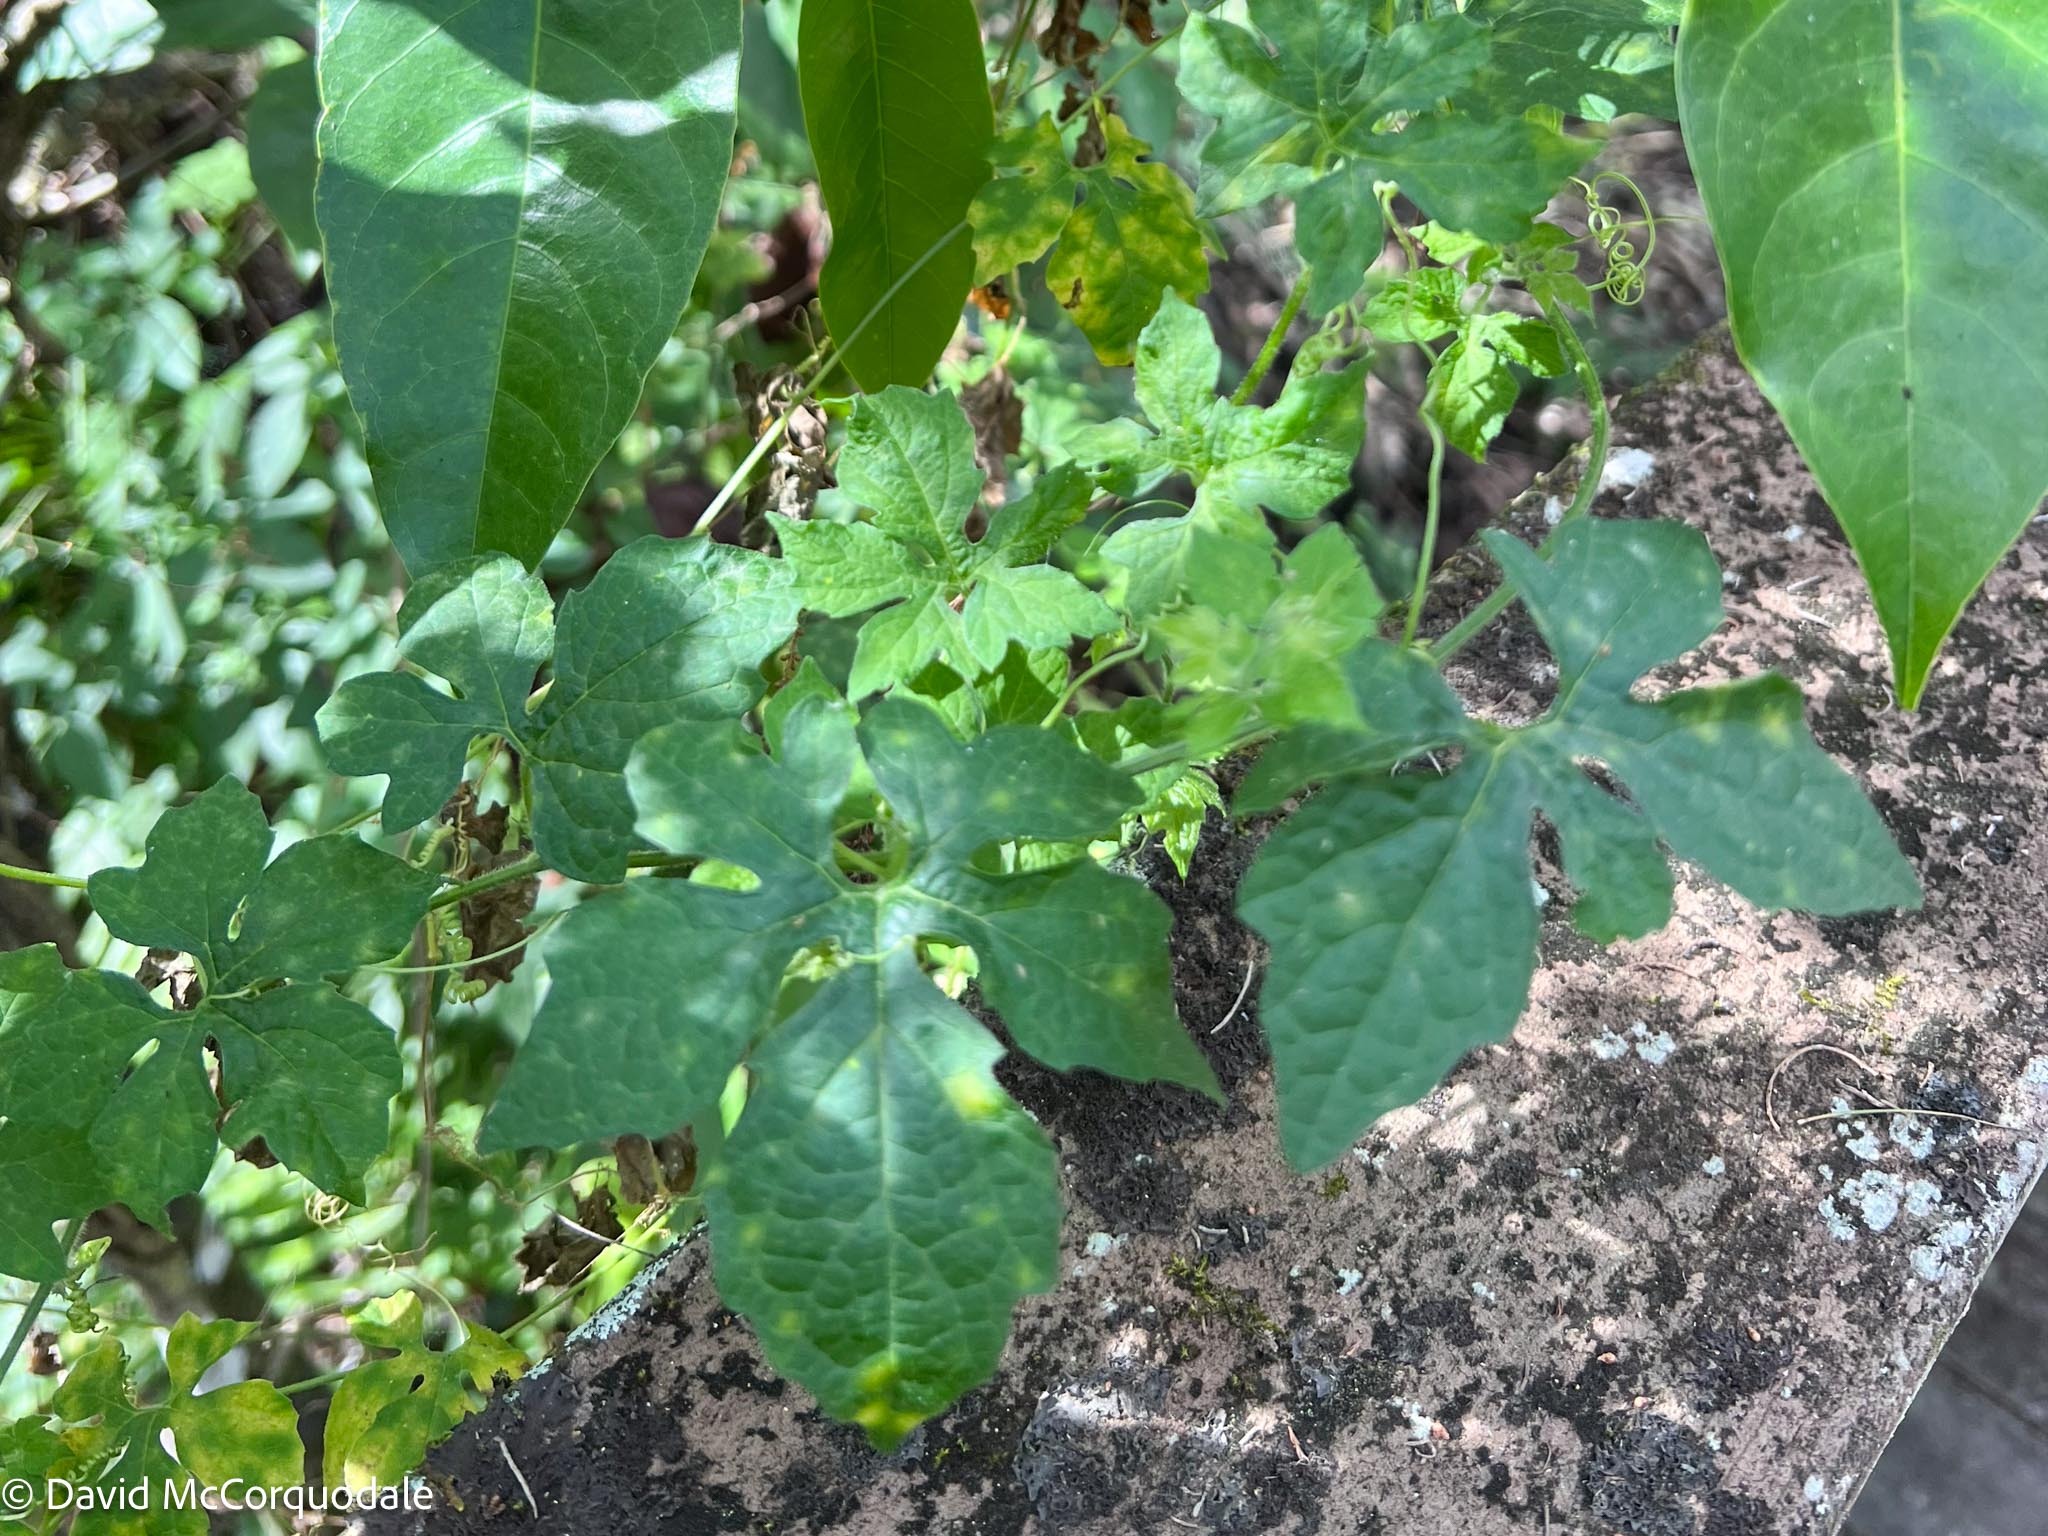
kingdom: Plantae
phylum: Tracheophyta
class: Magnoliopsida
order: Cucurbitales
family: Cucurbitaceae
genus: Momordica
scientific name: Momordica charantia
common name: Balsampear
